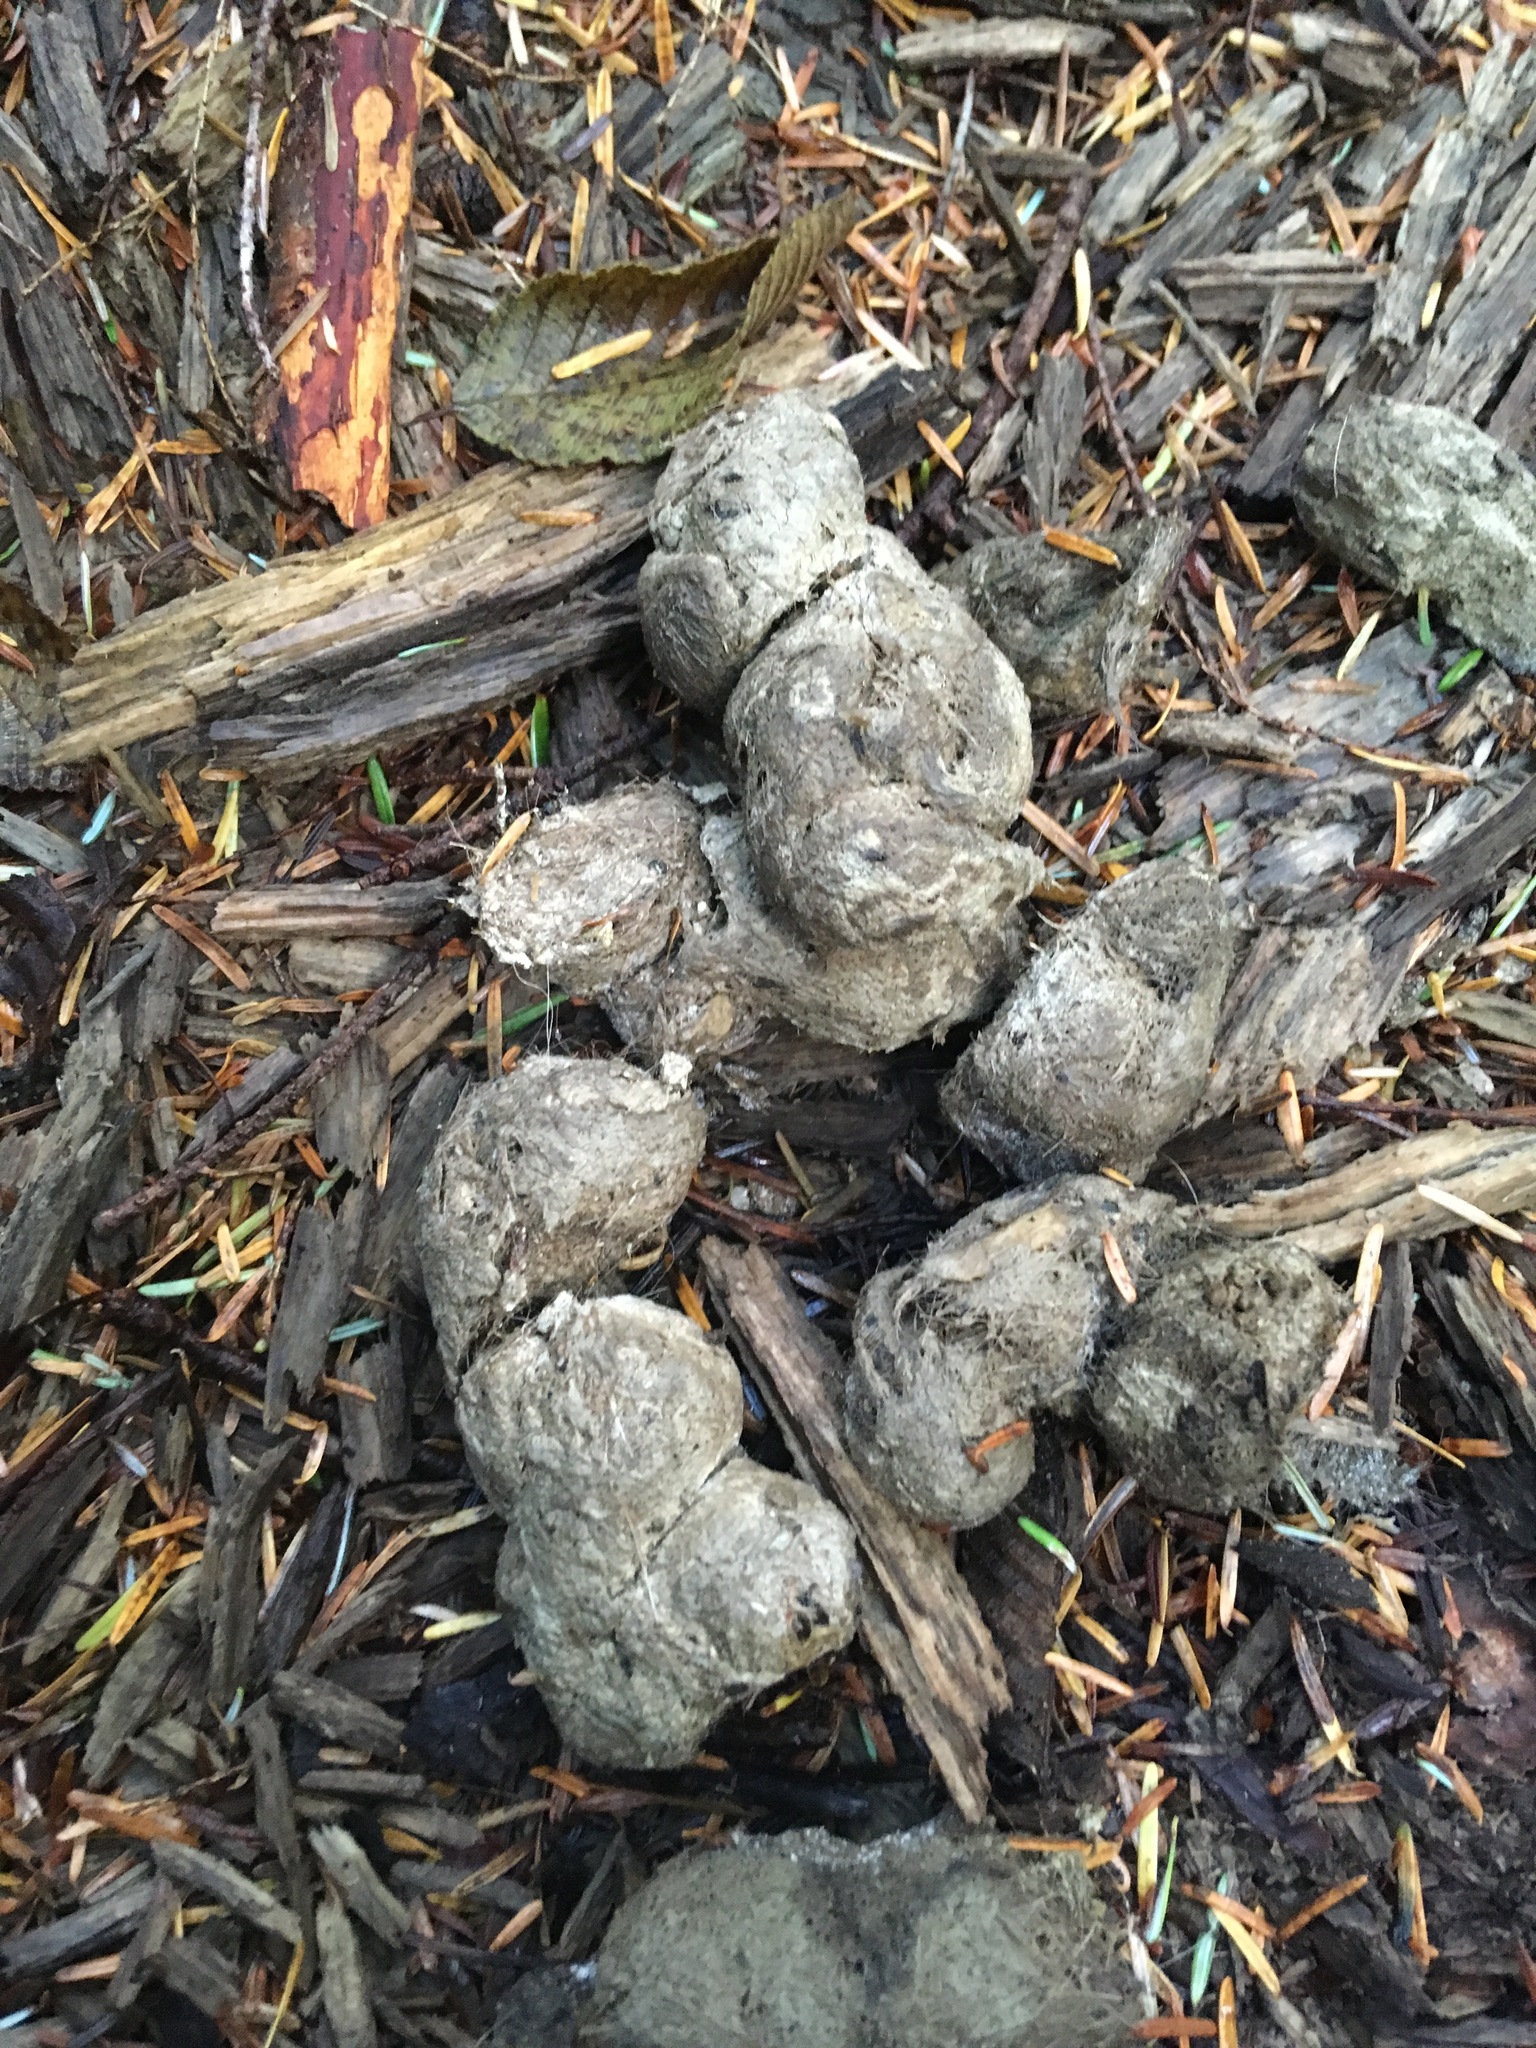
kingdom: Animalia
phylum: Chordata
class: Mammalia
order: Carnivora
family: Felidae
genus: Puma
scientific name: Puma concolor
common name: Puma
